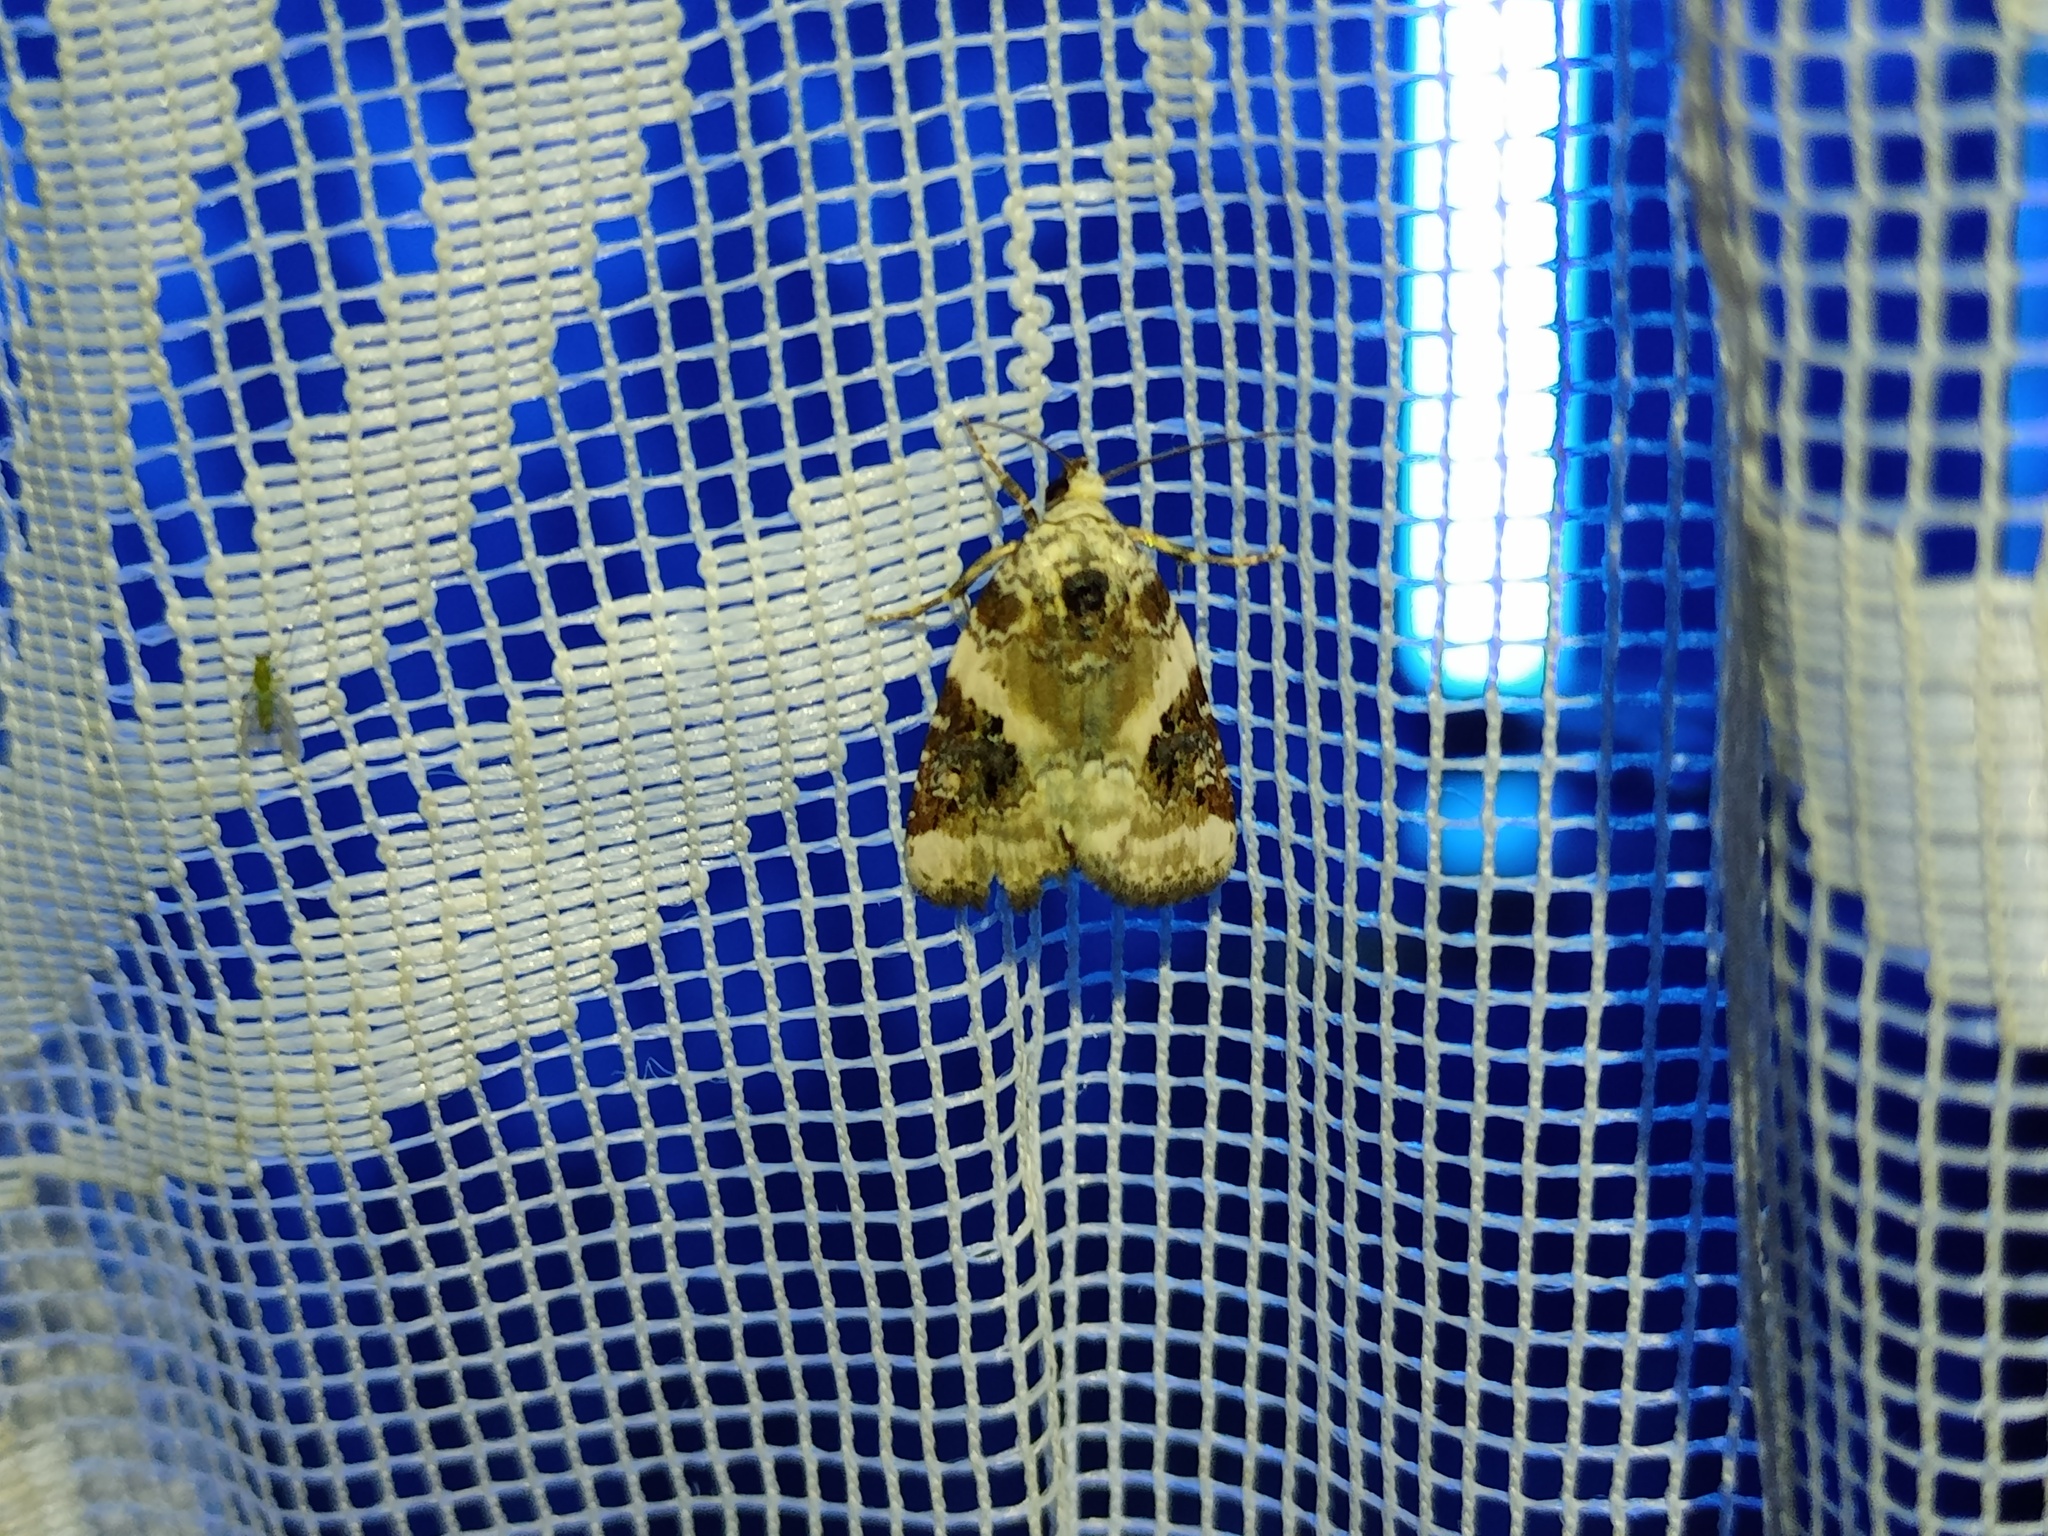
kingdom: Animalia
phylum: Arthropoda
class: Insecta
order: Lepidoptera
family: Noctuidae
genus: Pseudeustrotia
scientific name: Pseudeustrotia candidula
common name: Shining marbled
